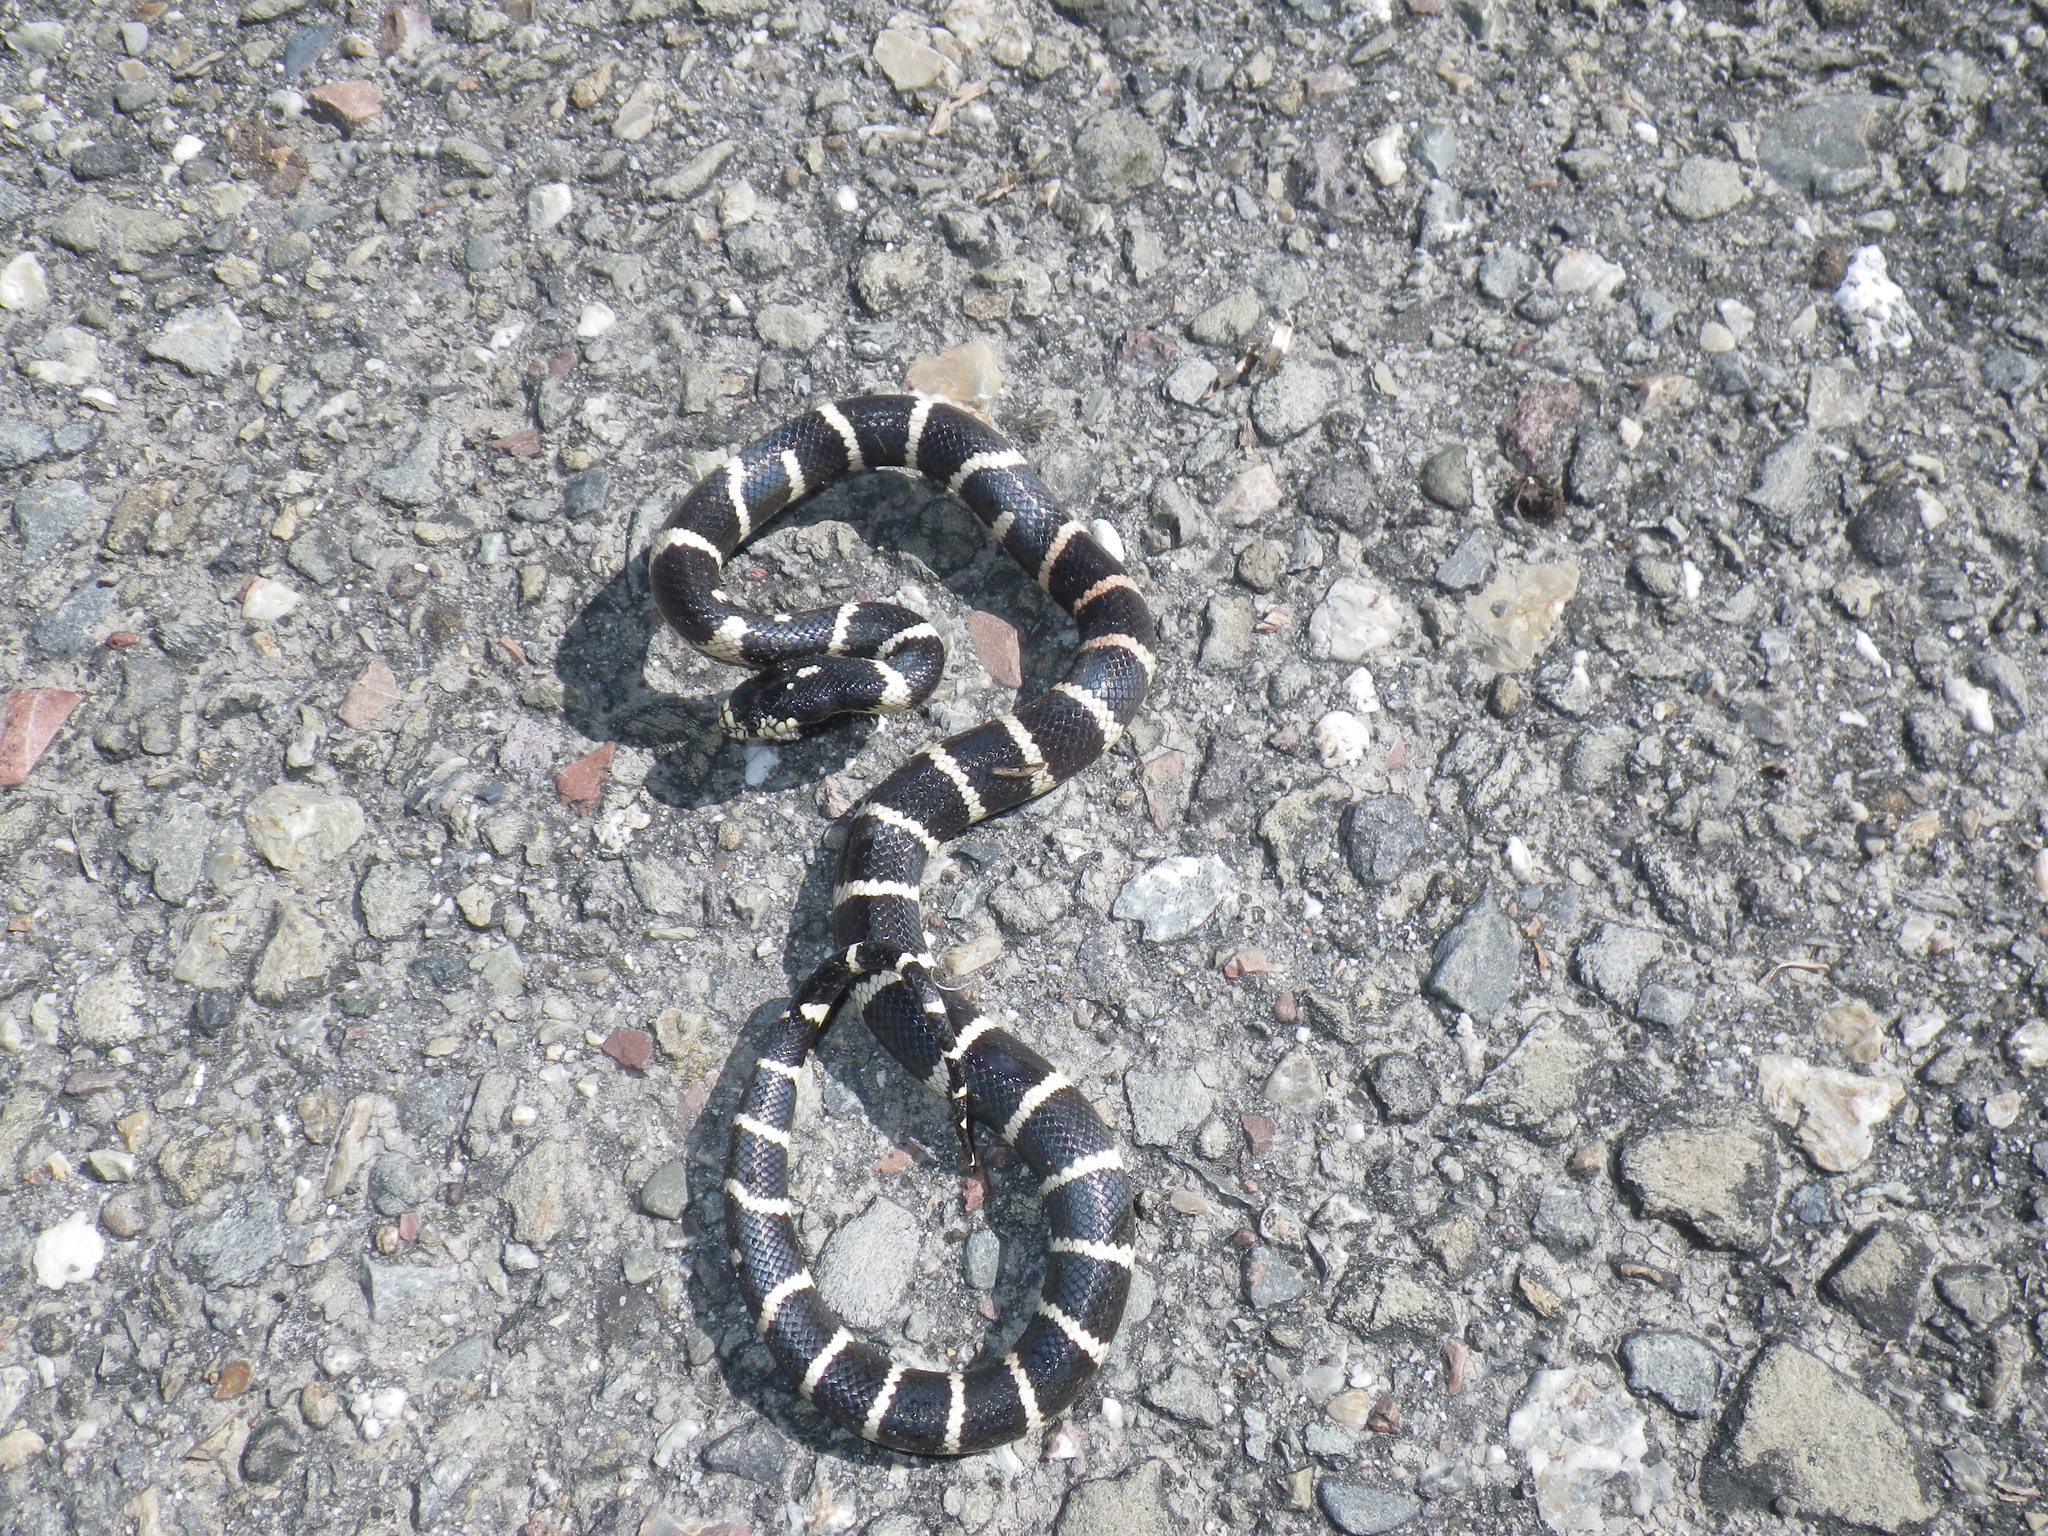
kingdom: Animalia
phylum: Chordata
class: Squamata
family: Colubridae
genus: Lampropeltis
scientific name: Lampropeltis californiae
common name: California kingsnake
